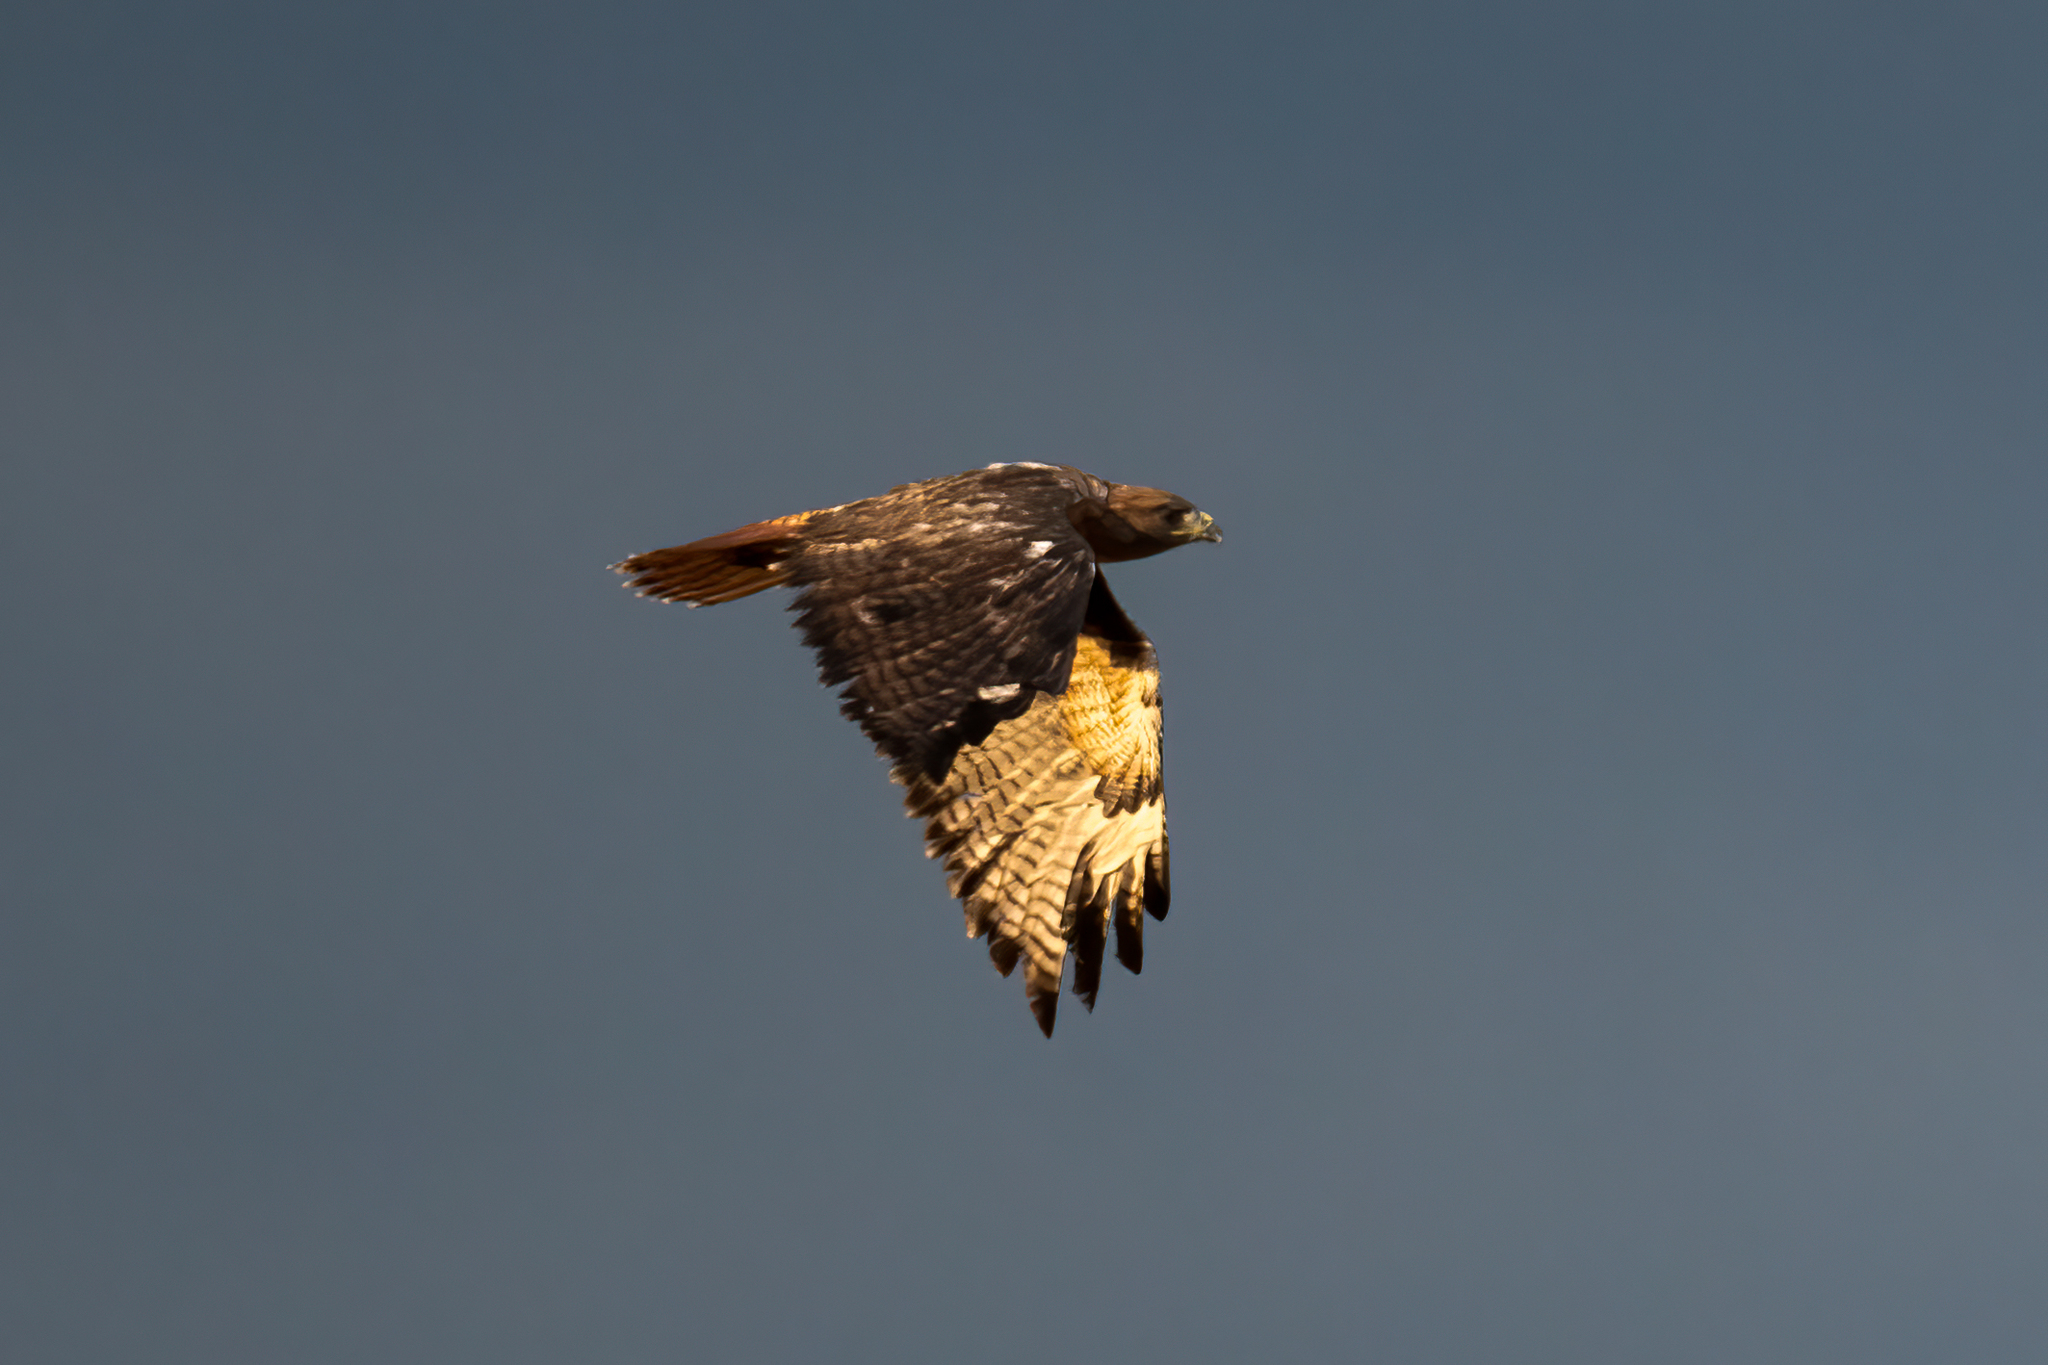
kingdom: Animalia
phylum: Chordata
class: Aves
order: Accipitriformes
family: Accipitridae
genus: Buteo
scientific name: Buteo jamaicensis
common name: Red-tailed hawk
